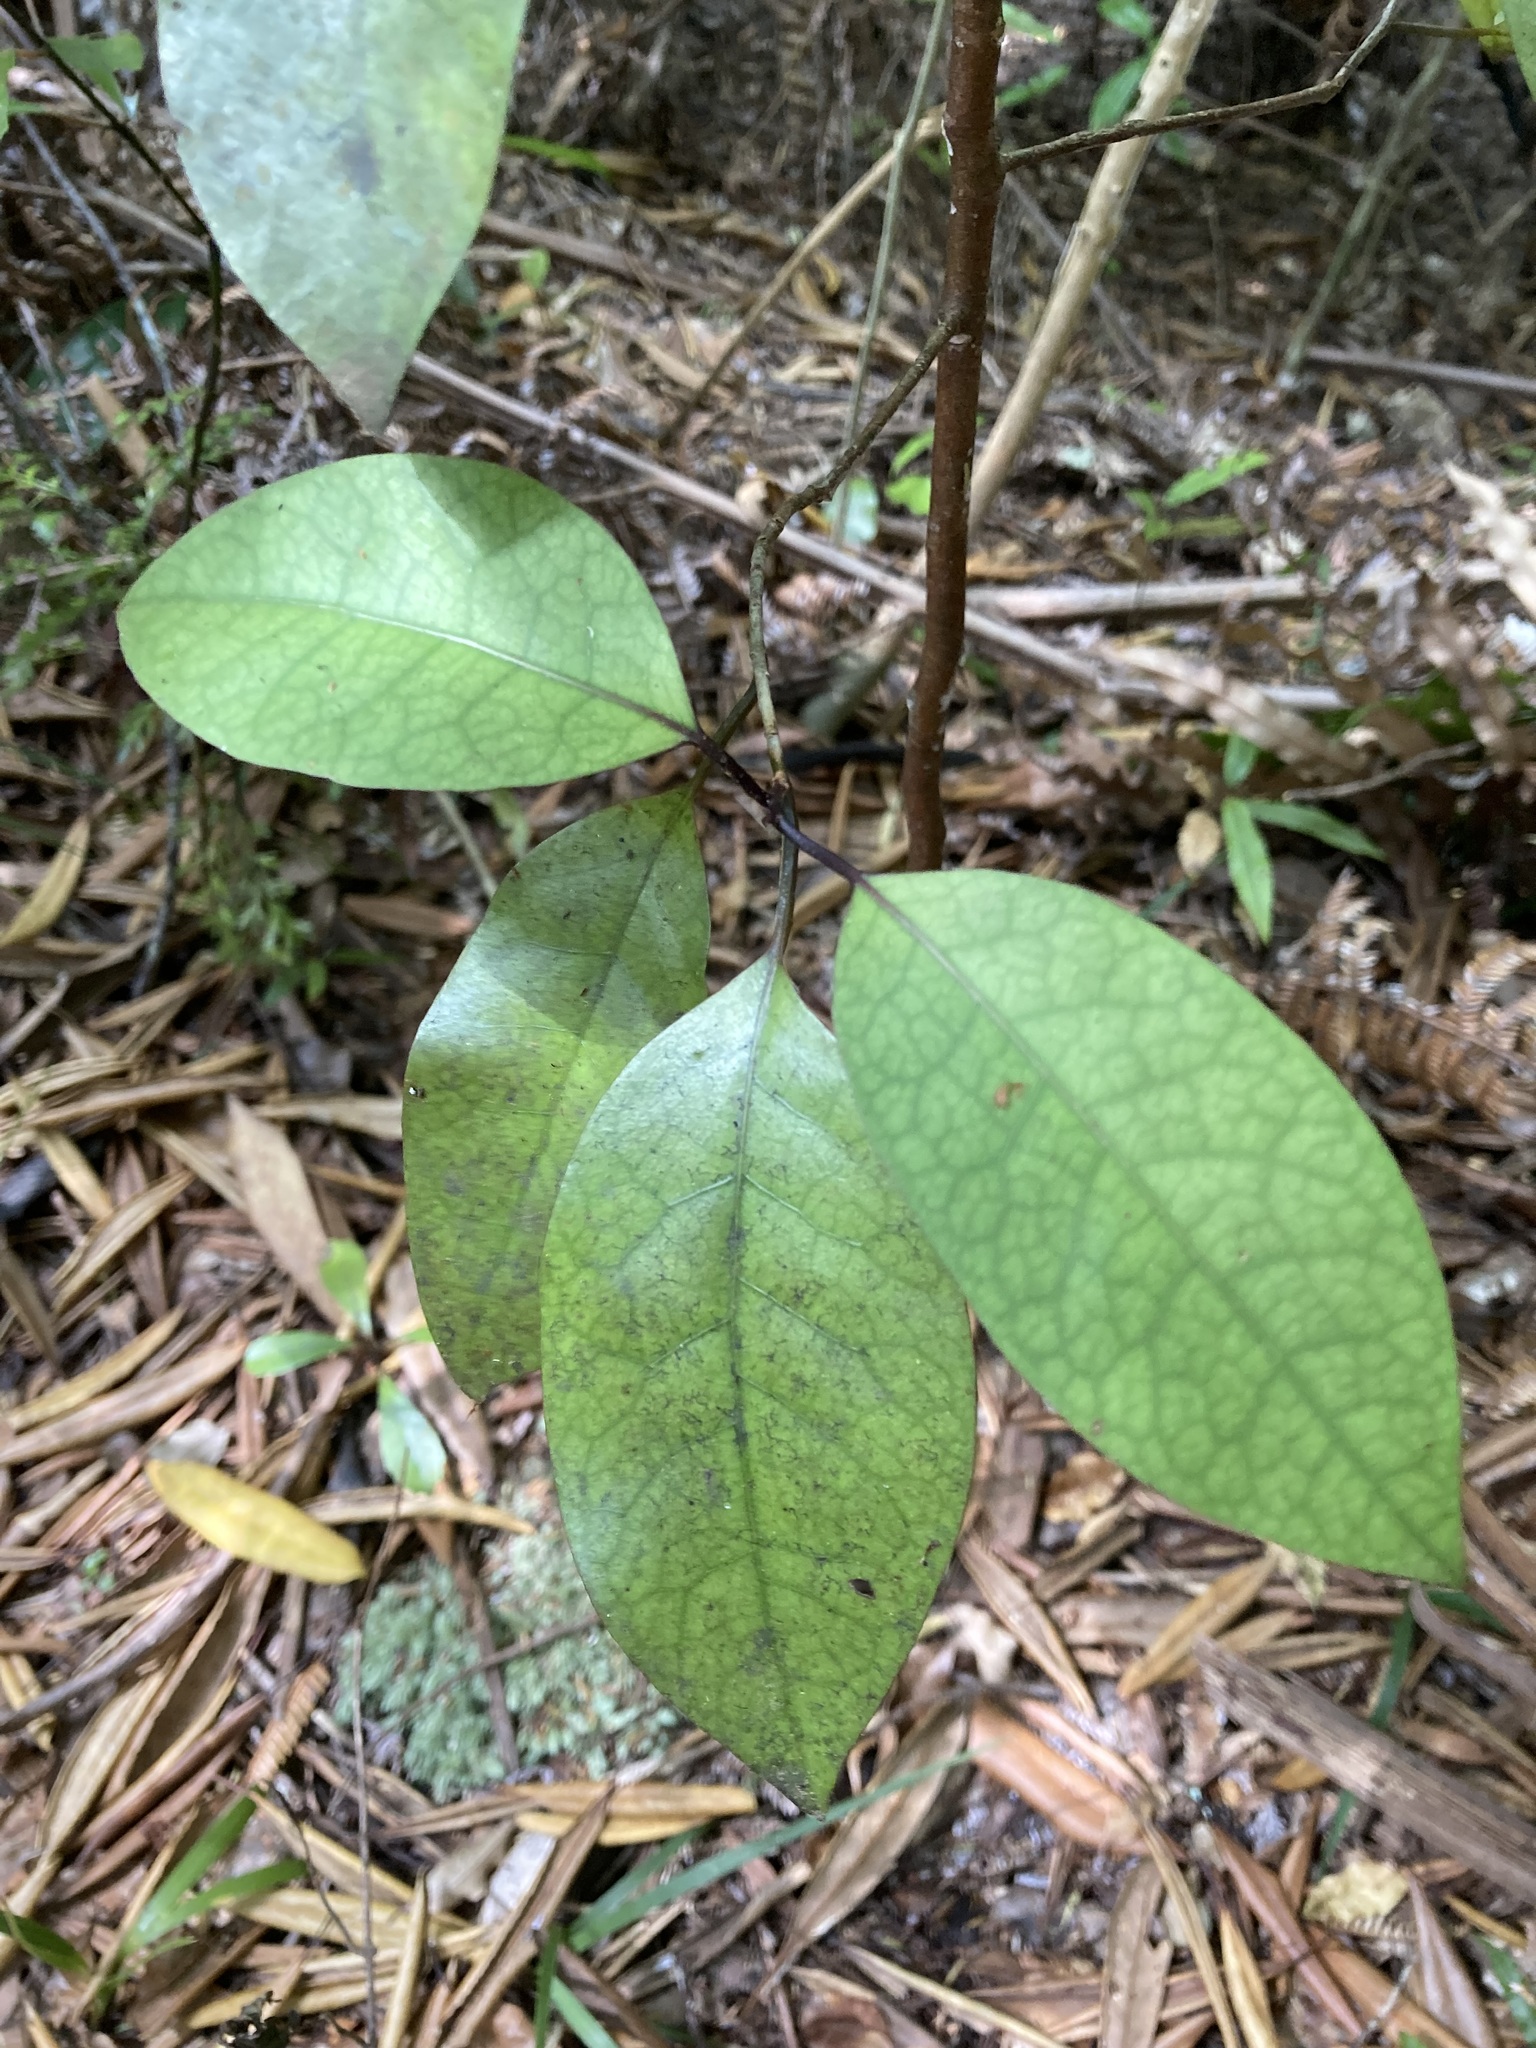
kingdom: Plantae
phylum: Tracheophyta
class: Magnoliopsida
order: Laurales
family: Lauraceae
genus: Litsea
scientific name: Litsea calicaris
